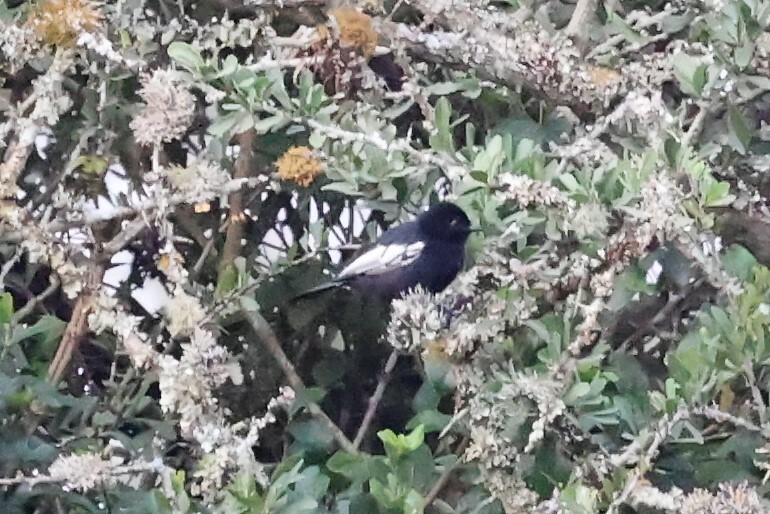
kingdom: Animalia
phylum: Chordata
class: Aves
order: Passeriformes
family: Paridae
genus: Parus
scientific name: Parus leucomelas
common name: White-winged black tit
